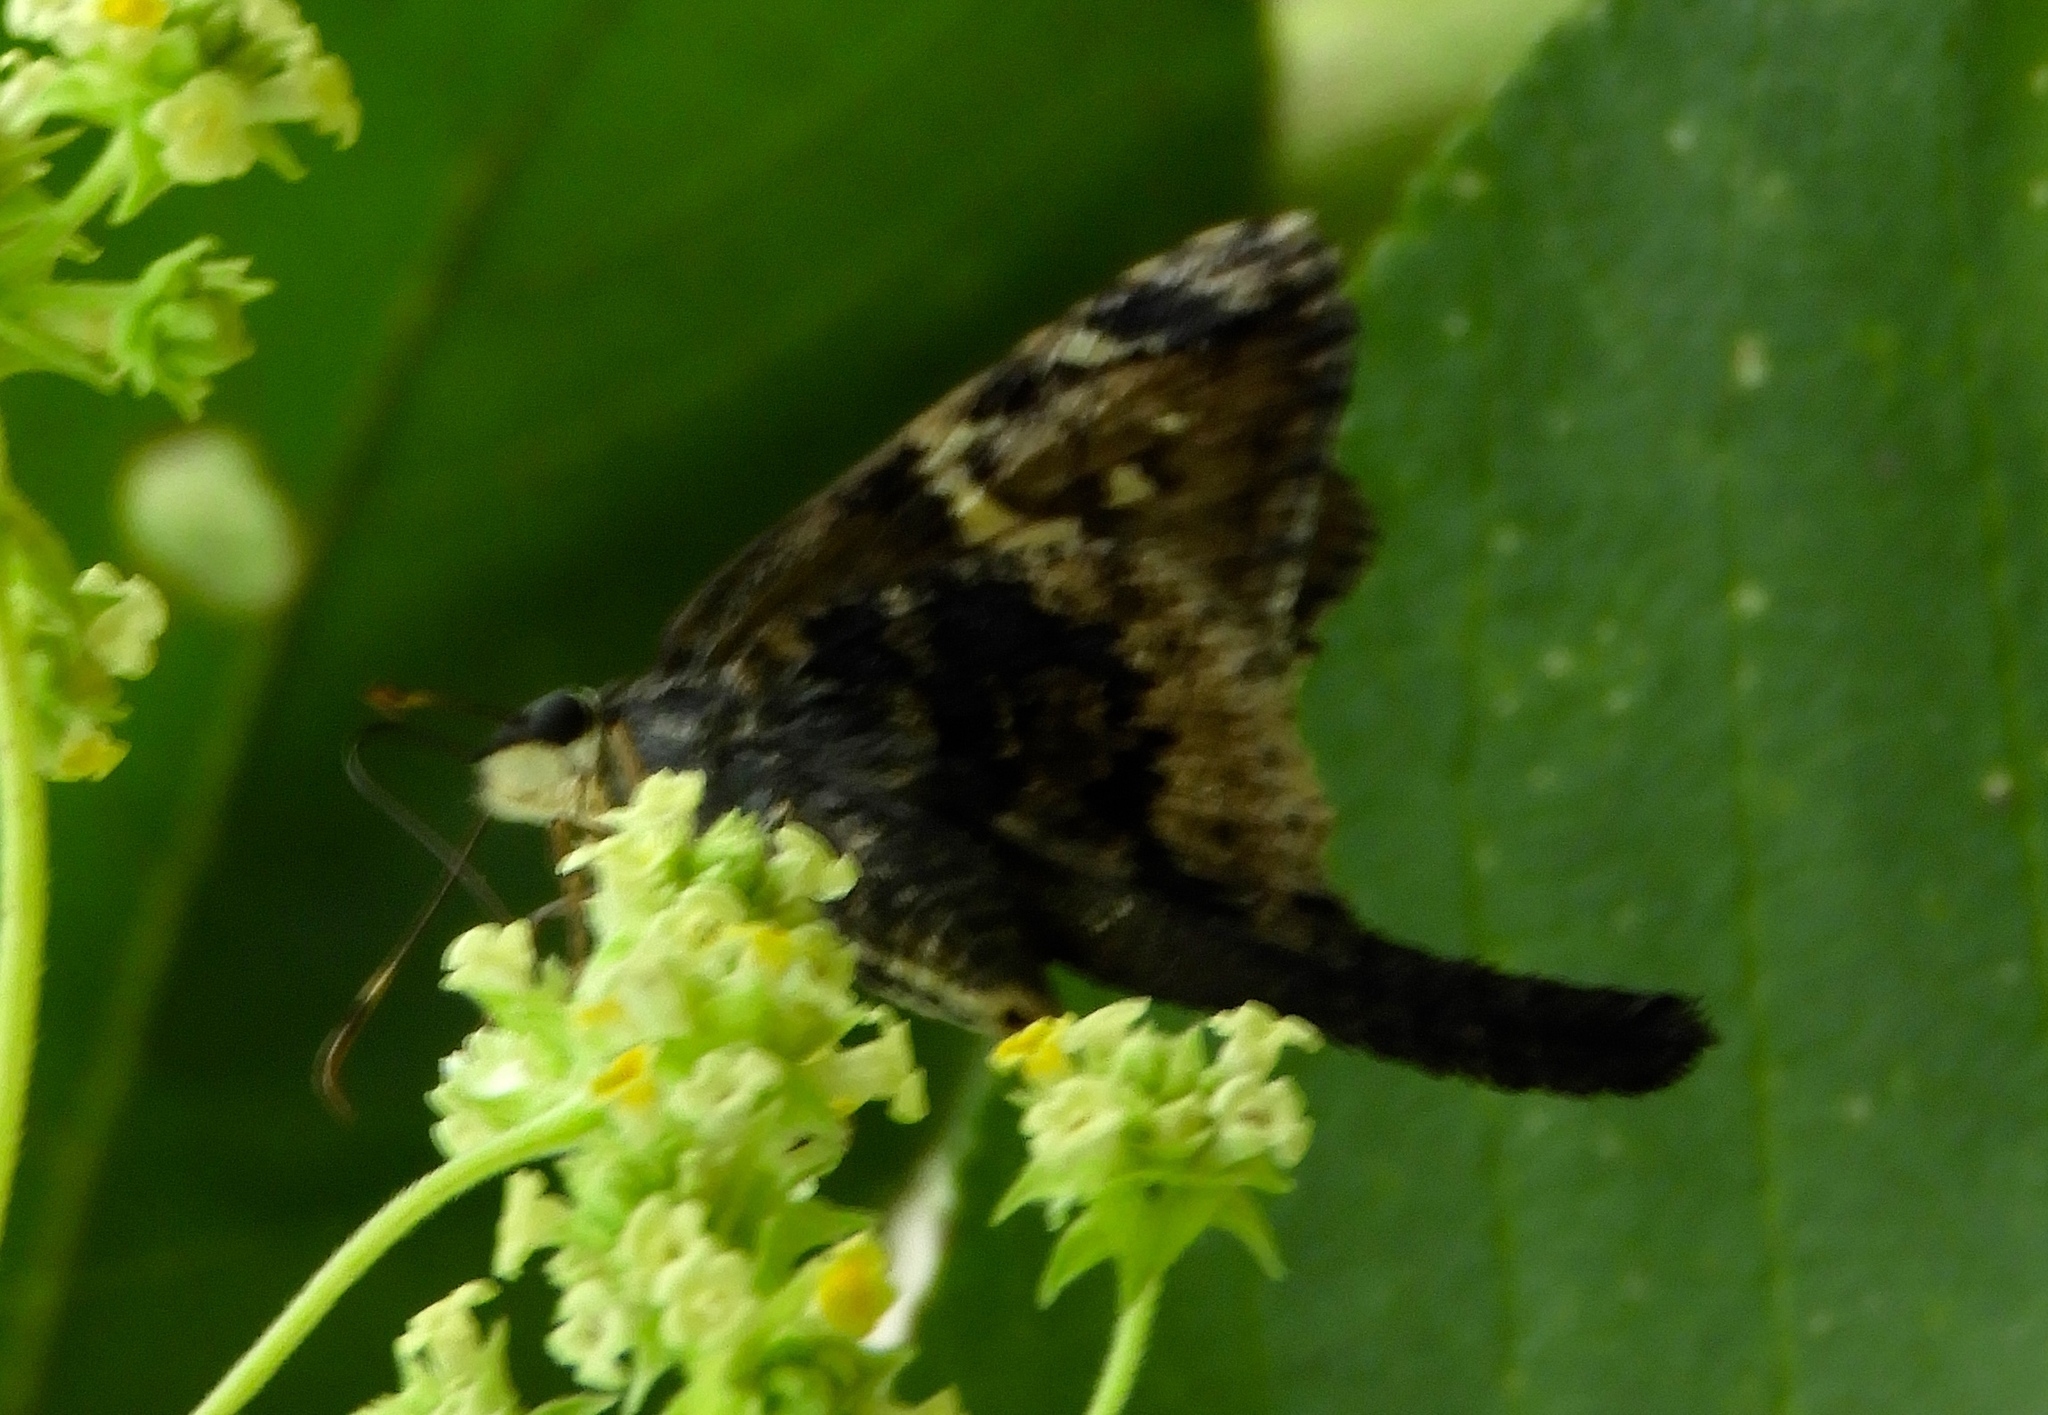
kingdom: Animalia
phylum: Arthropoda
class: Insecta
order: Lepidoptera
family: Hesperiidae
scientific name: Hesperiidae
